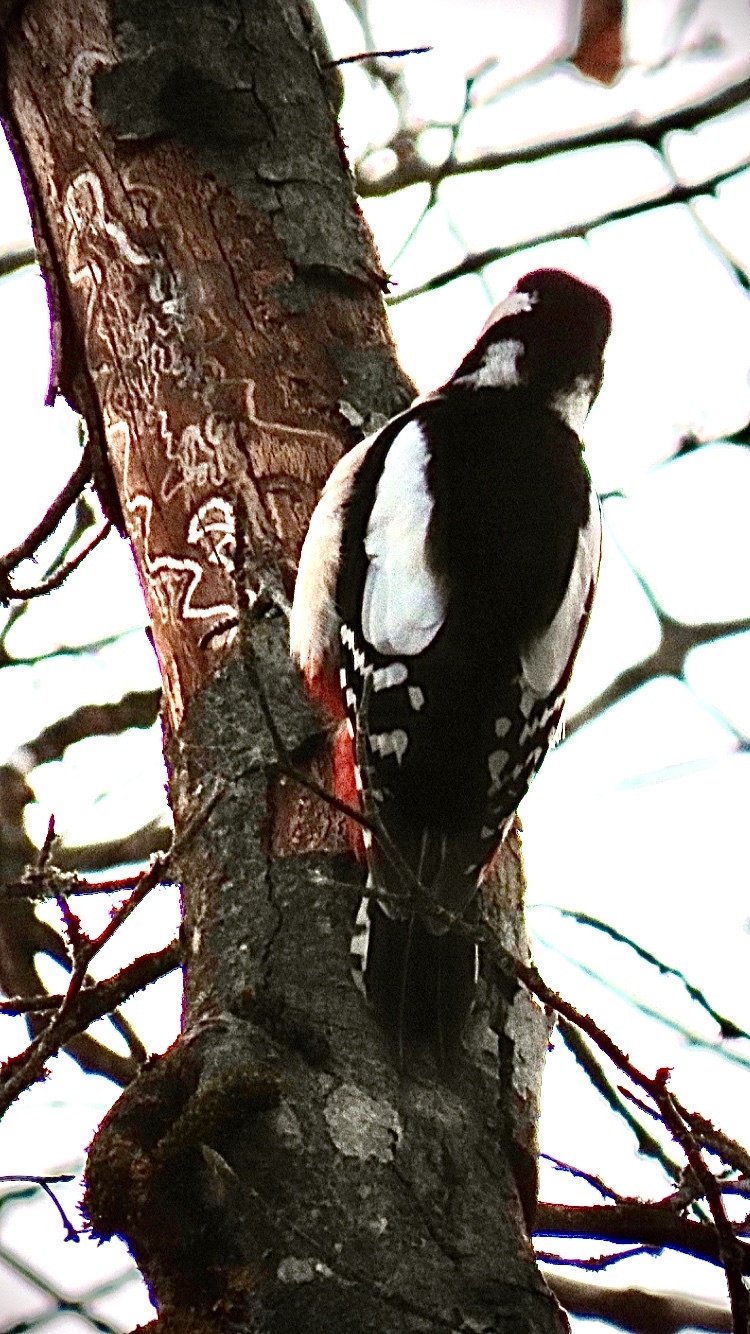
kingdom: Animalia
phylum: Chordata
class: Aves
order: Piciformes
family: Picidae
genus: Dendrocopos
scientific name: Dendrocopos major
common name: Great spotted woodpecker
